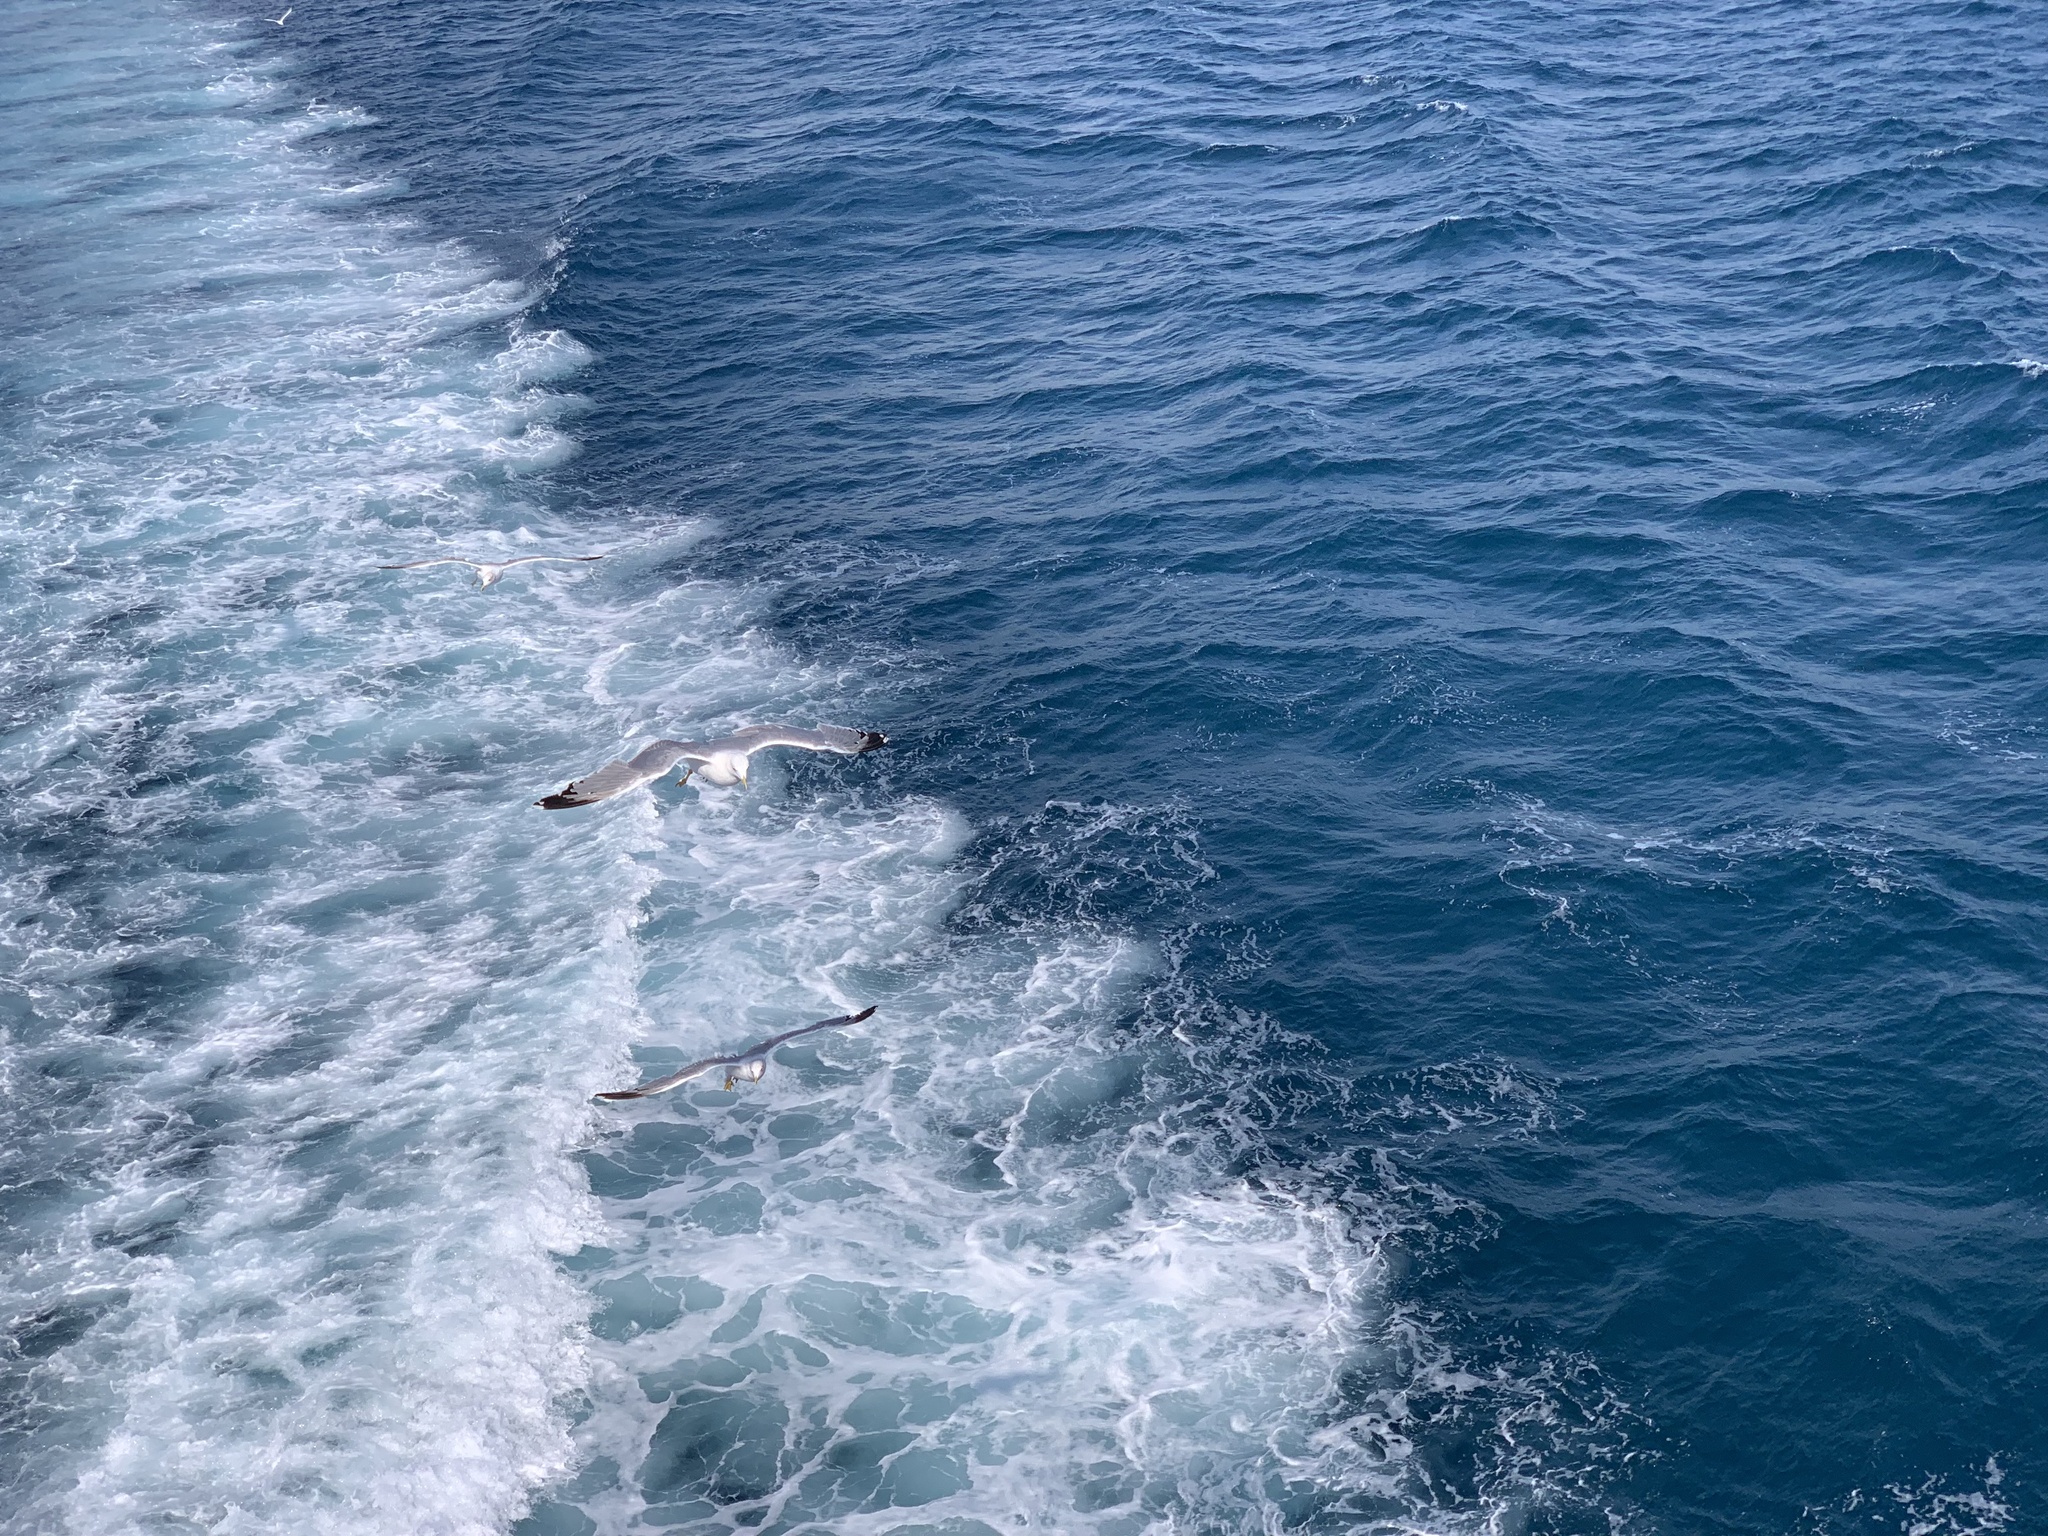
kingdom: Animalia
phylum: Chordata
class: Aves
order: Charadriiformes
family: Laridae
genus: Larus
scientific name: Larus michahellis
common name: Yellow-legged gull
